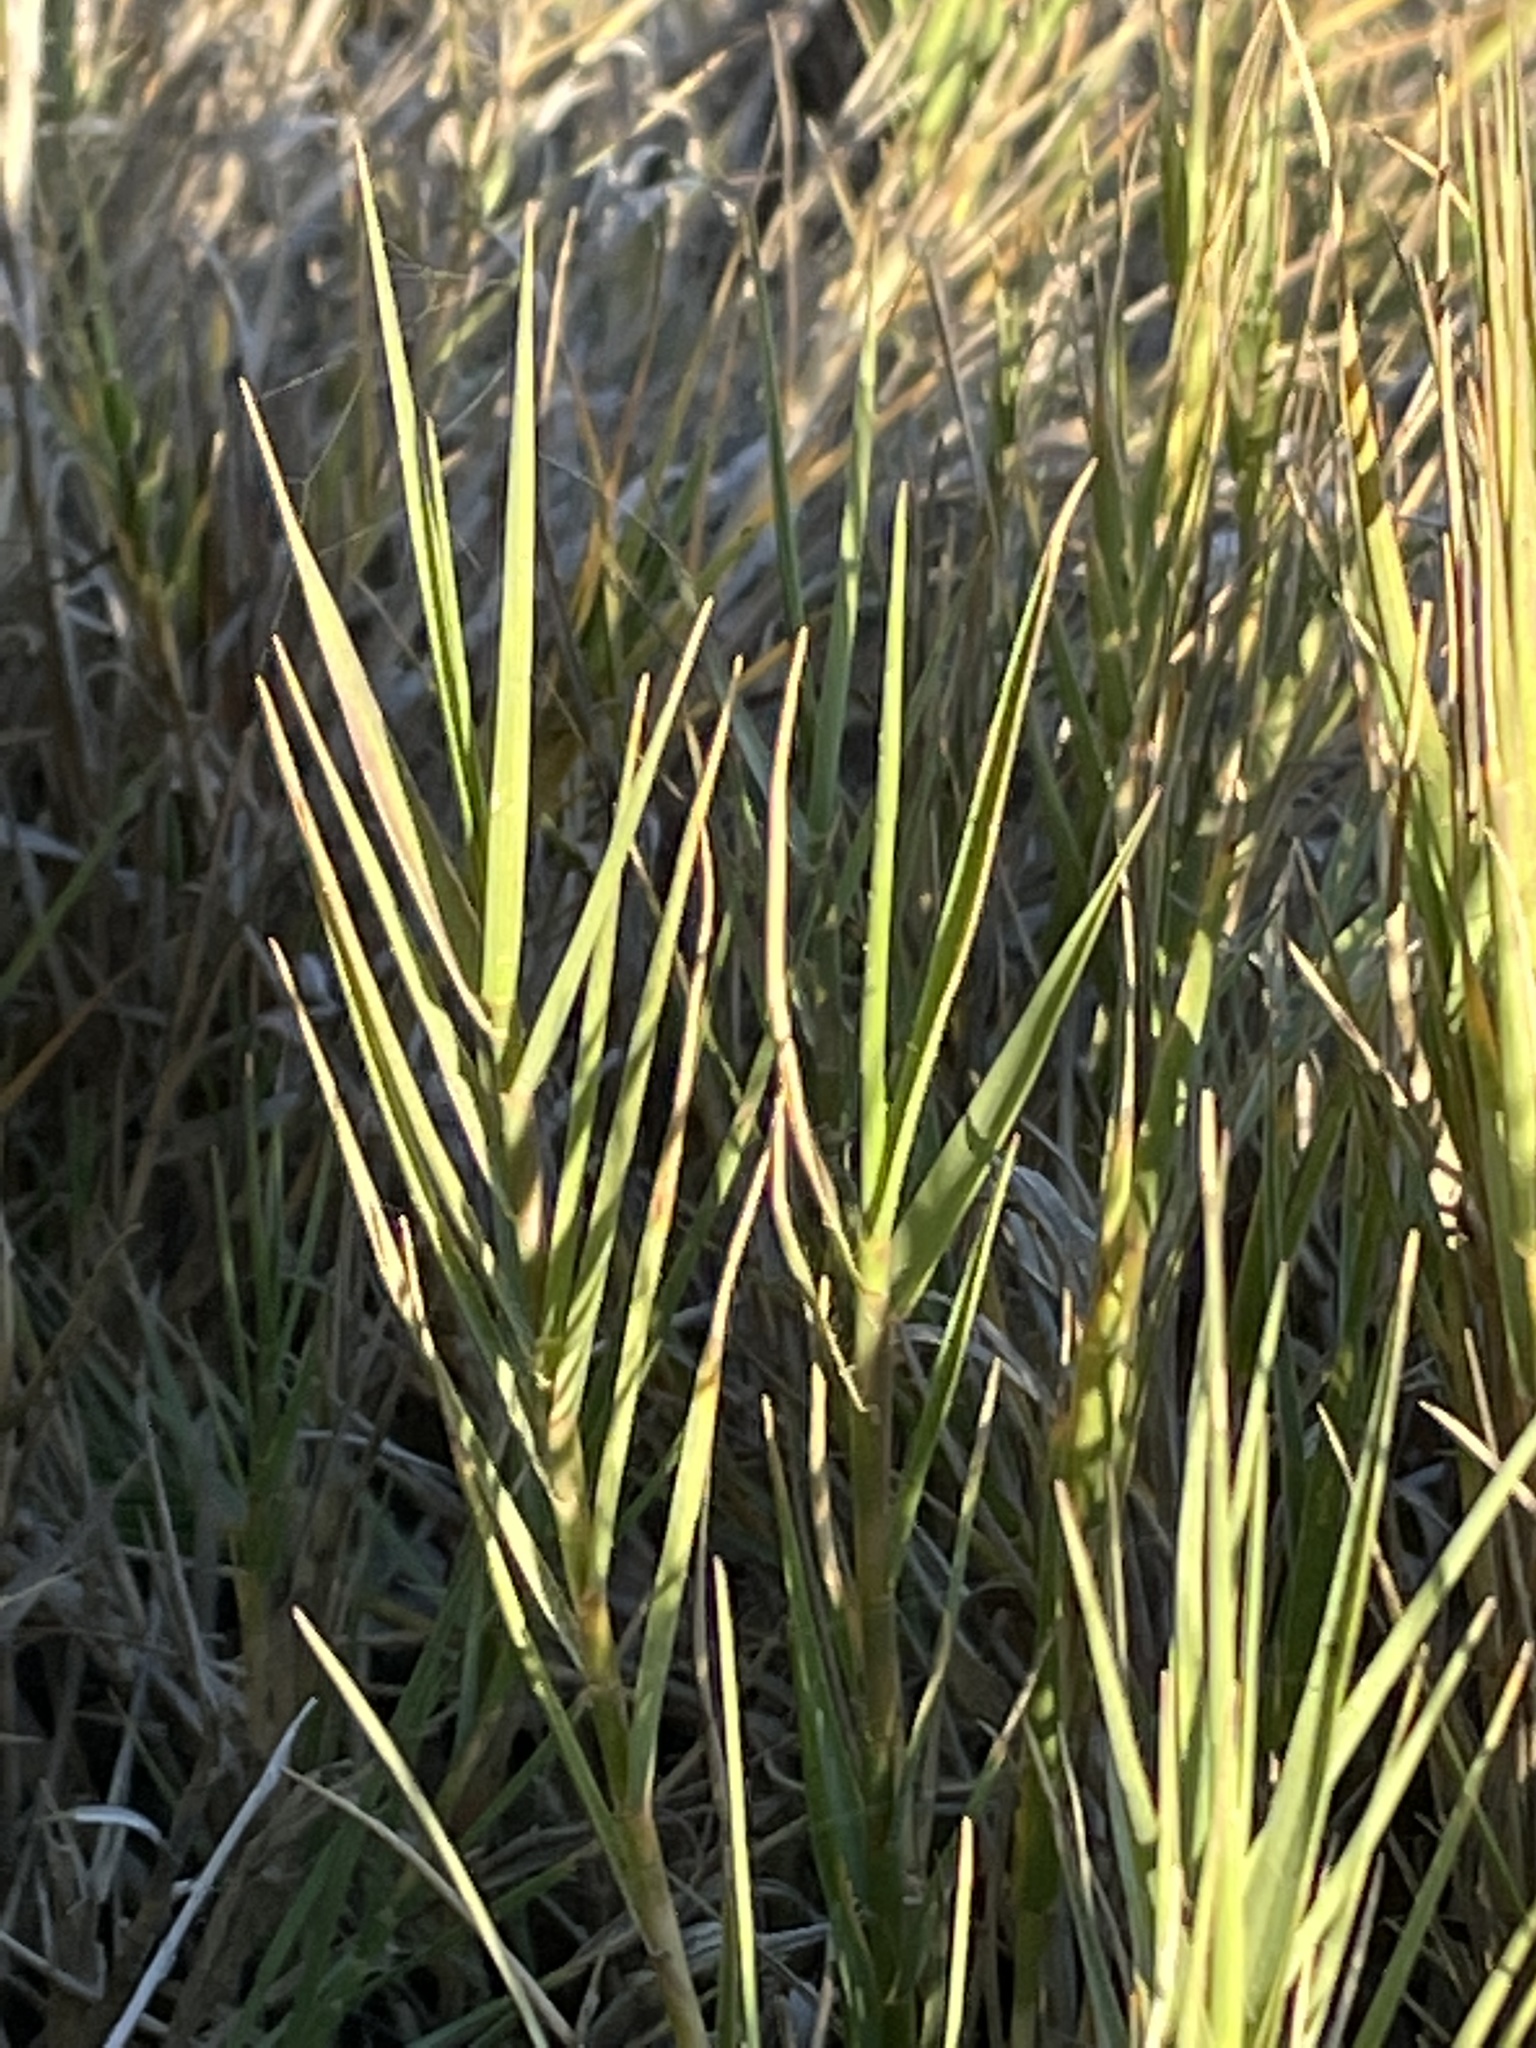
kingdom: Plantae
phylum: Tracheophyta
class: Liliopsida
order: Poales
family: Poaceae
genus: Distichlis
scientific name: Distichlis spicata
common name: Saltgrass
